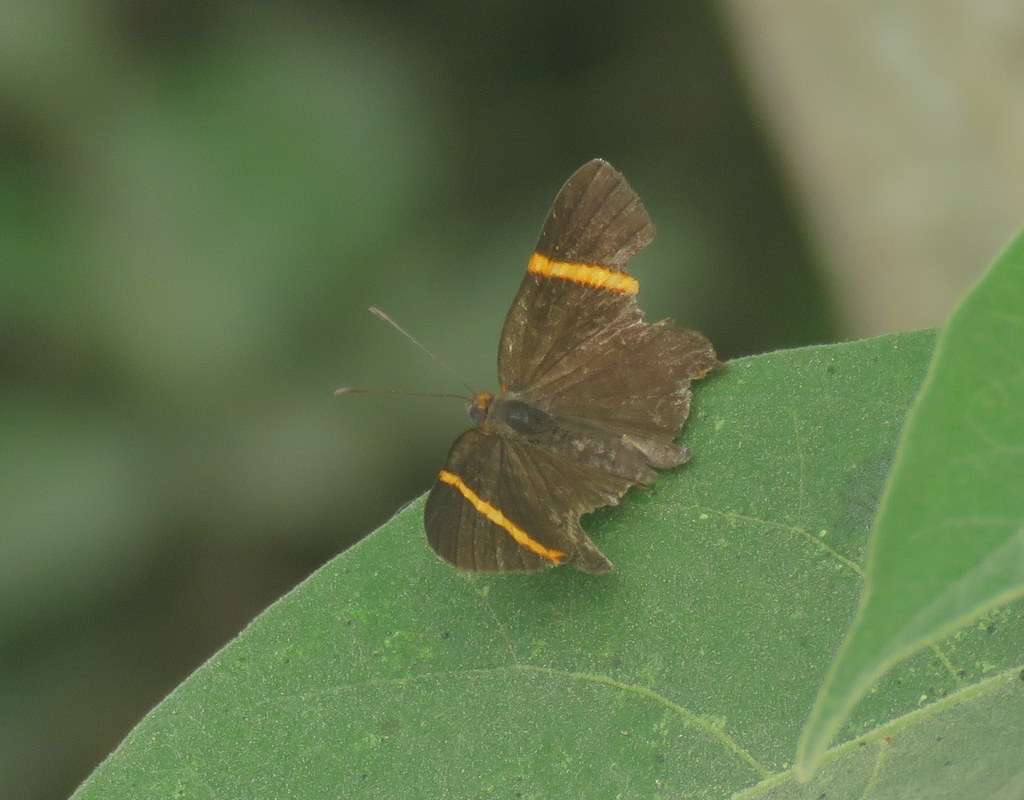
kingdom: Animalia
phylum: Arthropoda
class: Insecta
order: Lepidoptera
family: Riodinidae
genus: Riodina
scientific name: Riodina lysippoides
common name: Little dancer metalmark
